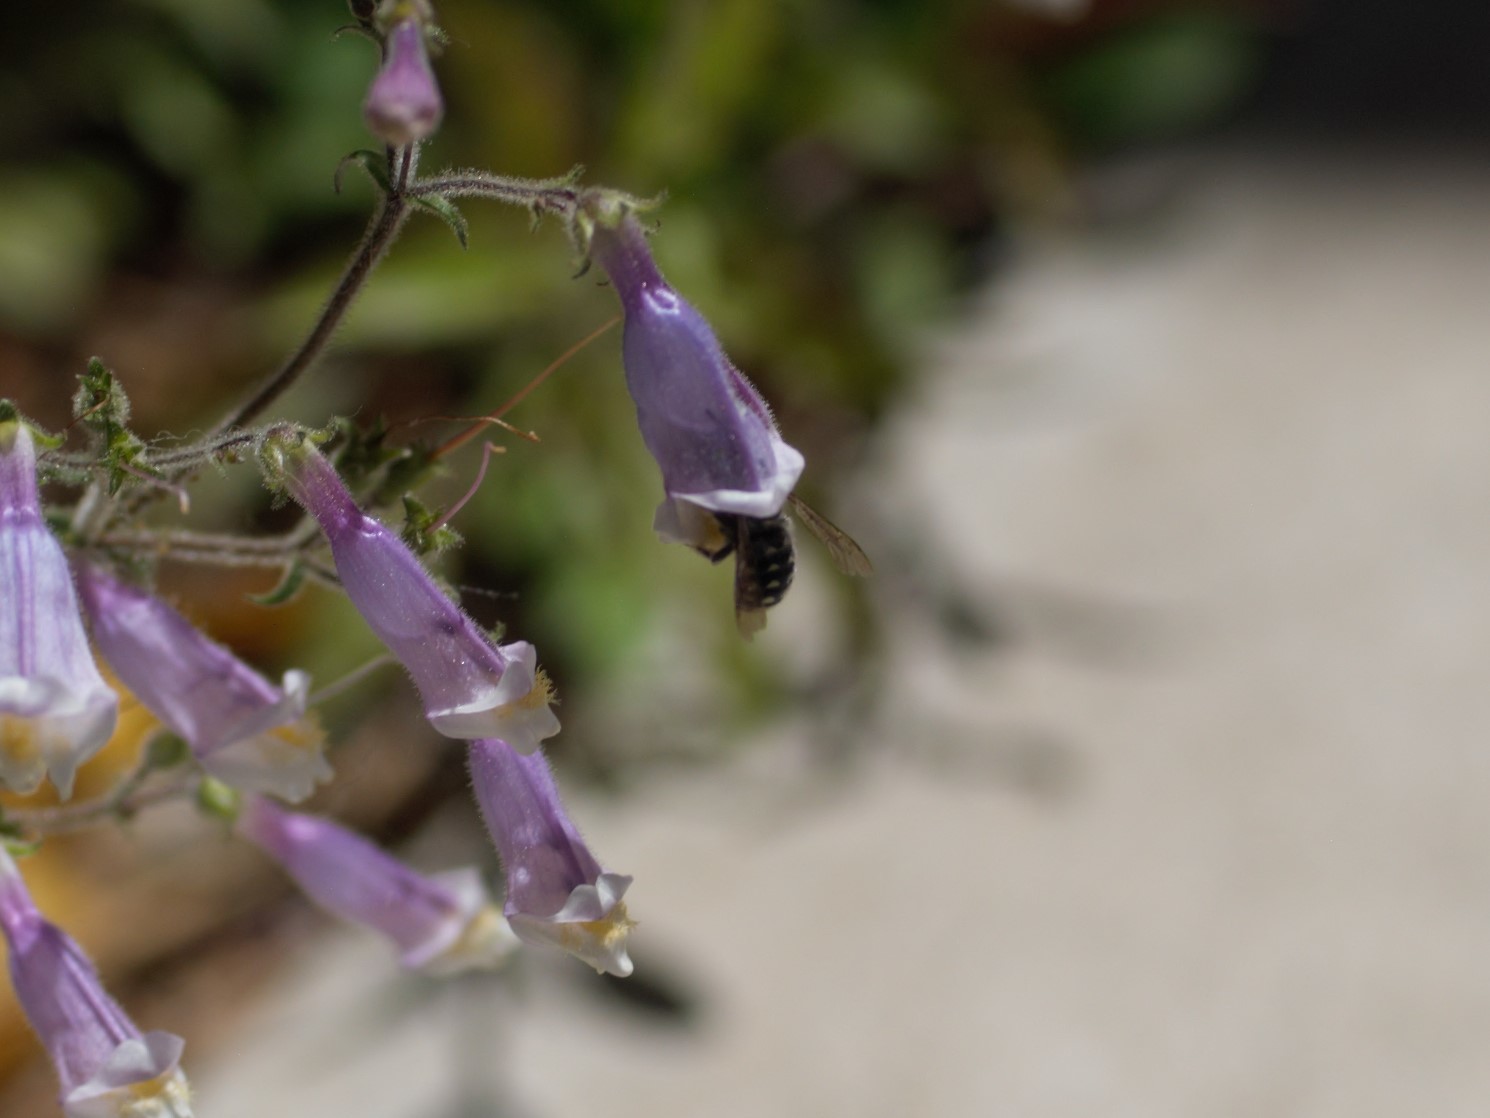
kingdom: Animalia
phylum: Arthropoda
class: Insecta
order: Hymenoptera
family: Megachilidae
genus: Anthidium
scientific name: Anthidium maculosum
